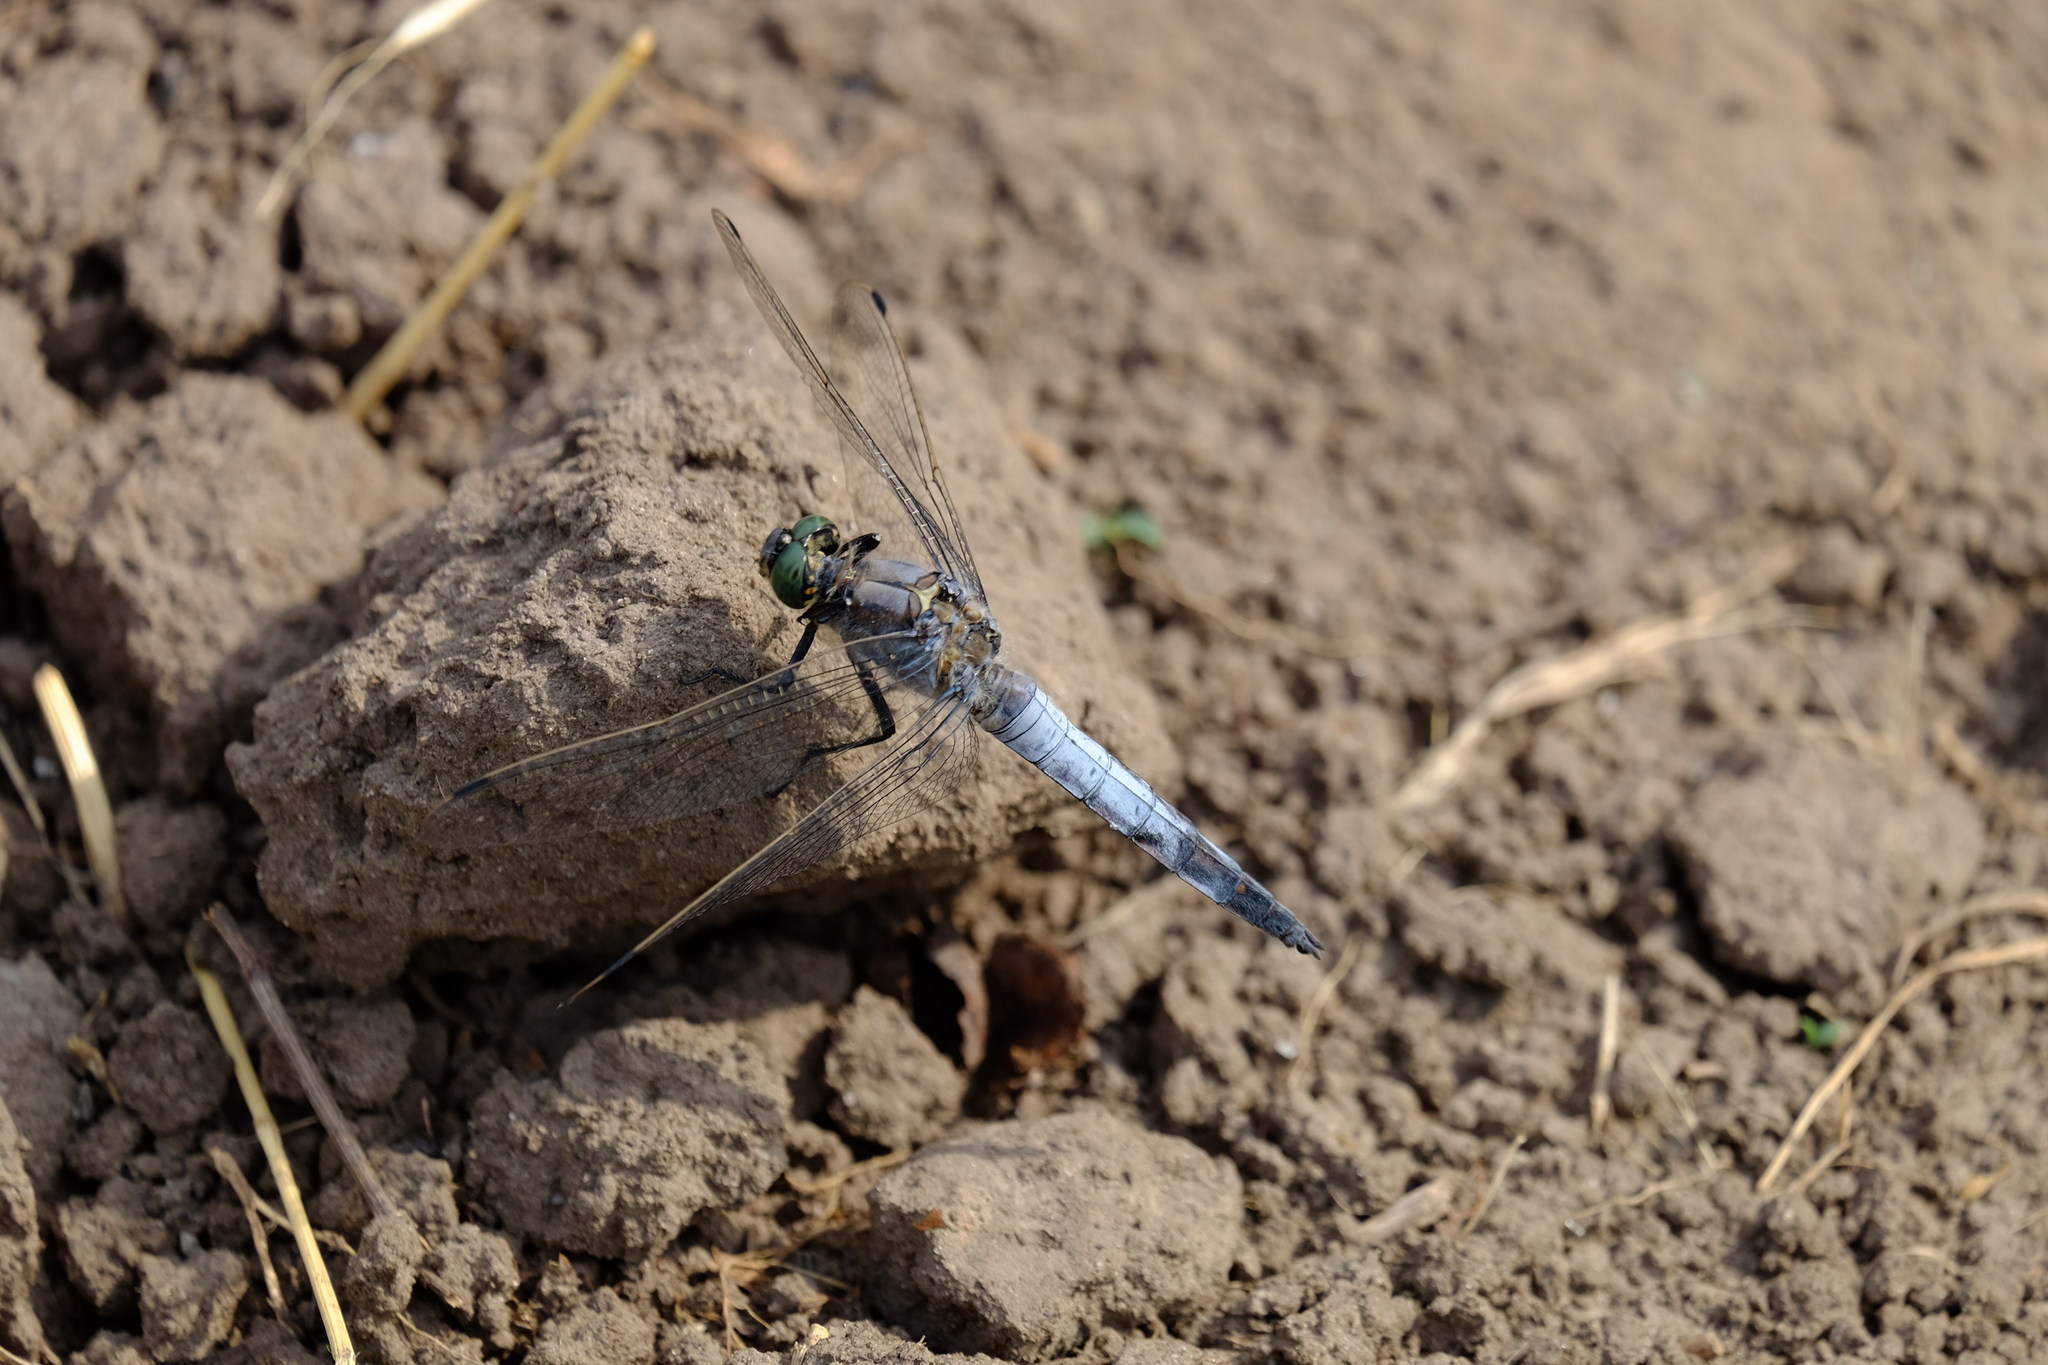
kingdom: Animalia
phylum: Arthropoda
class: Insecta
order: Odonata
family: Libellulidae
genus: Orthetrum
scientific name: Orthetrum cancellatum
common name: Black-tailed skimmer
